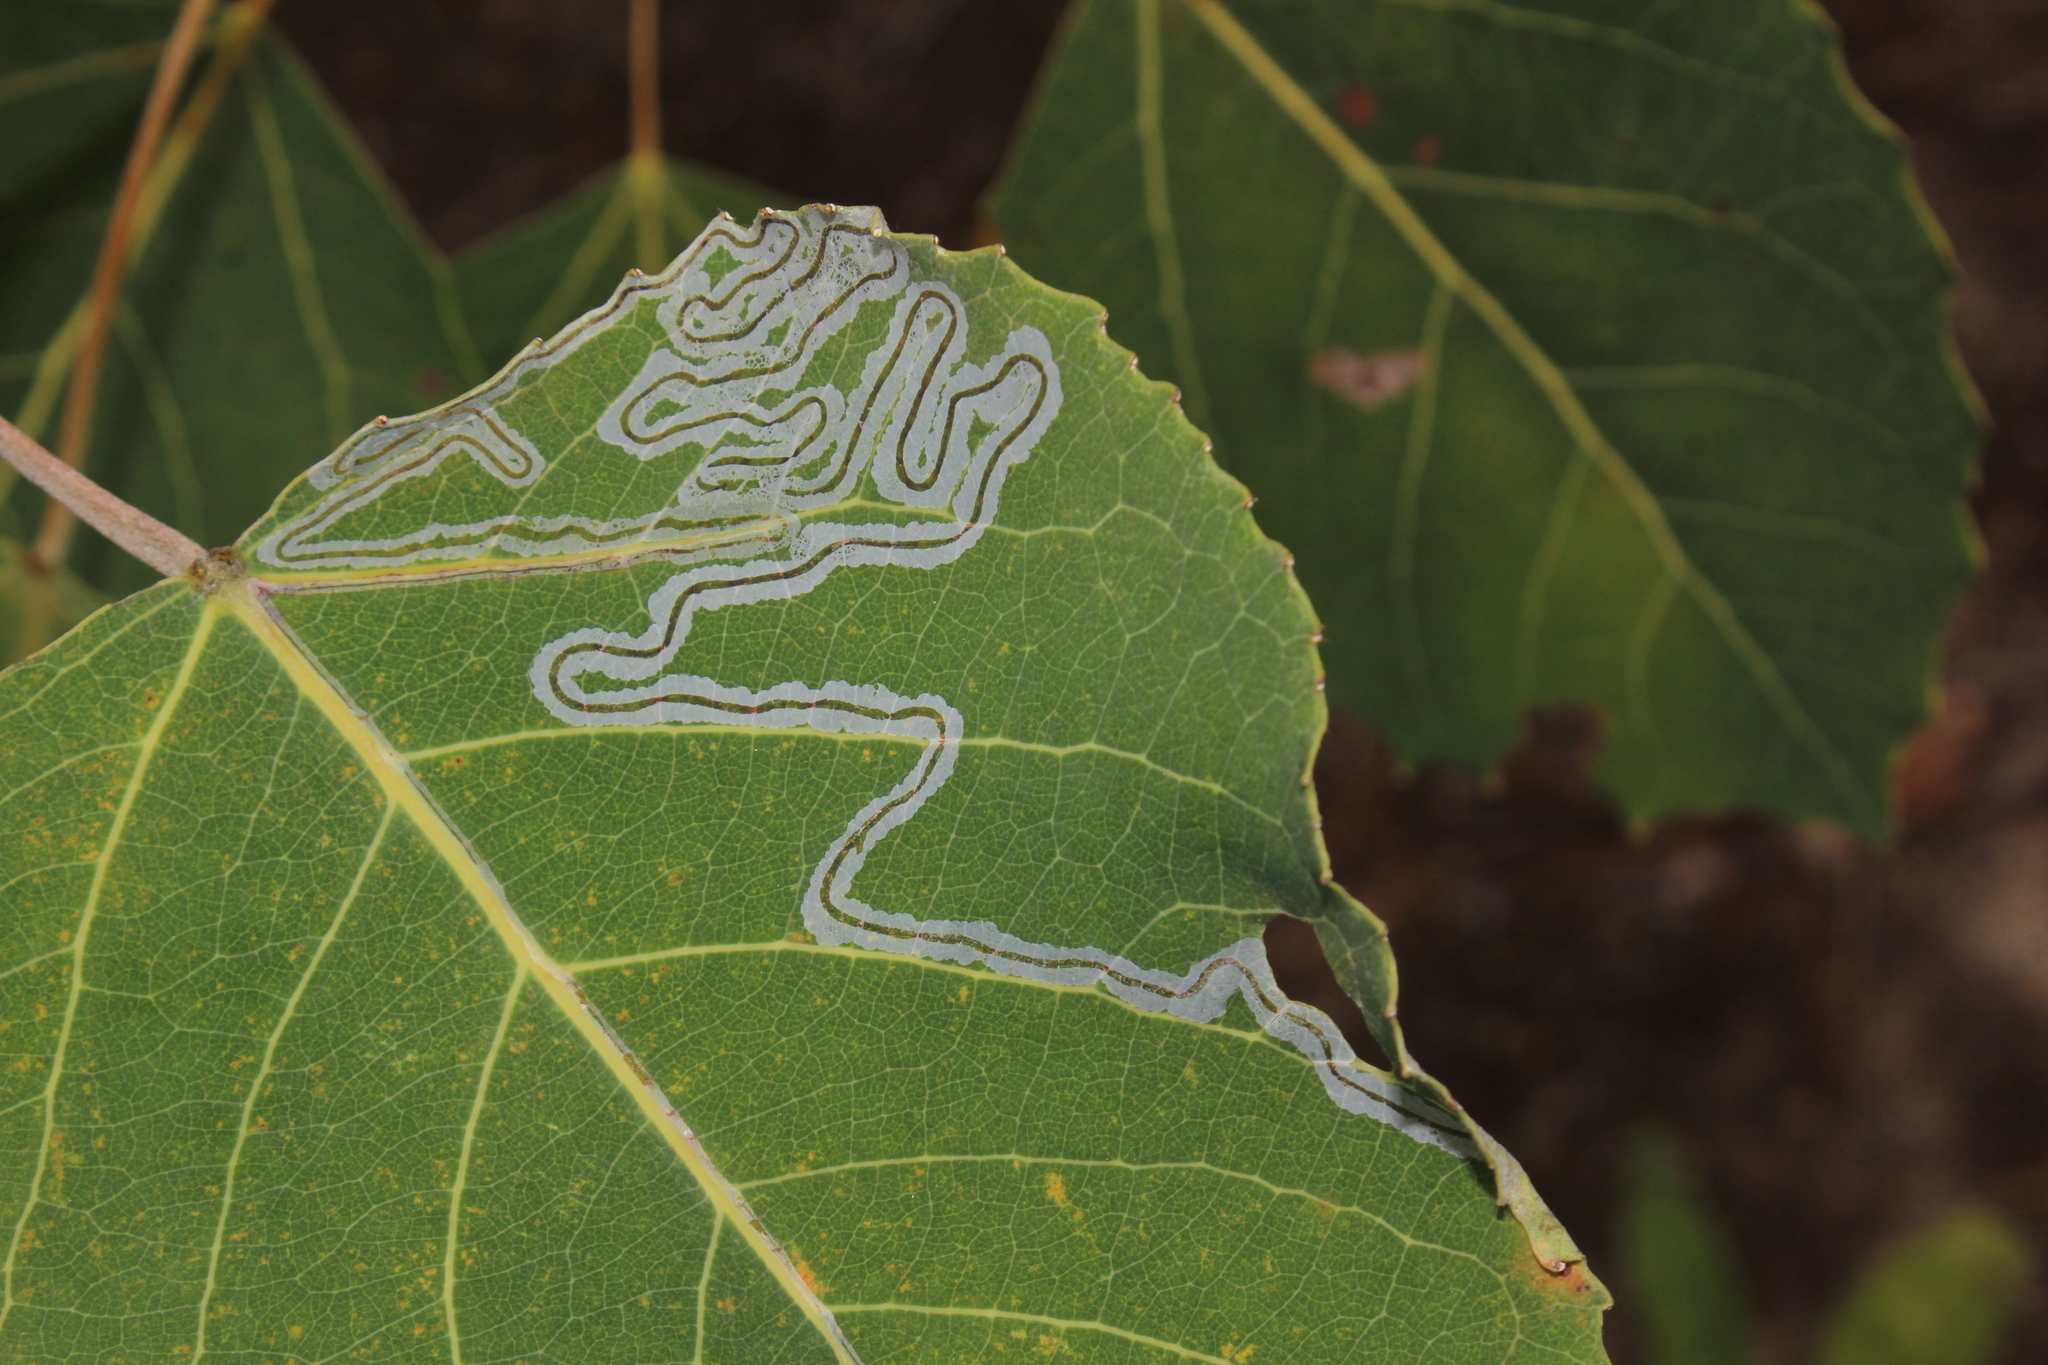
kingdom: Animalia
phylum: Arthropoda
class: Insecta
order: Lepidoptera
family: Gracillariidae
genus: Phyllocnistis
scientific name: Phyllocnistis populiella
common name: Aspen serpentine leafminer moth
